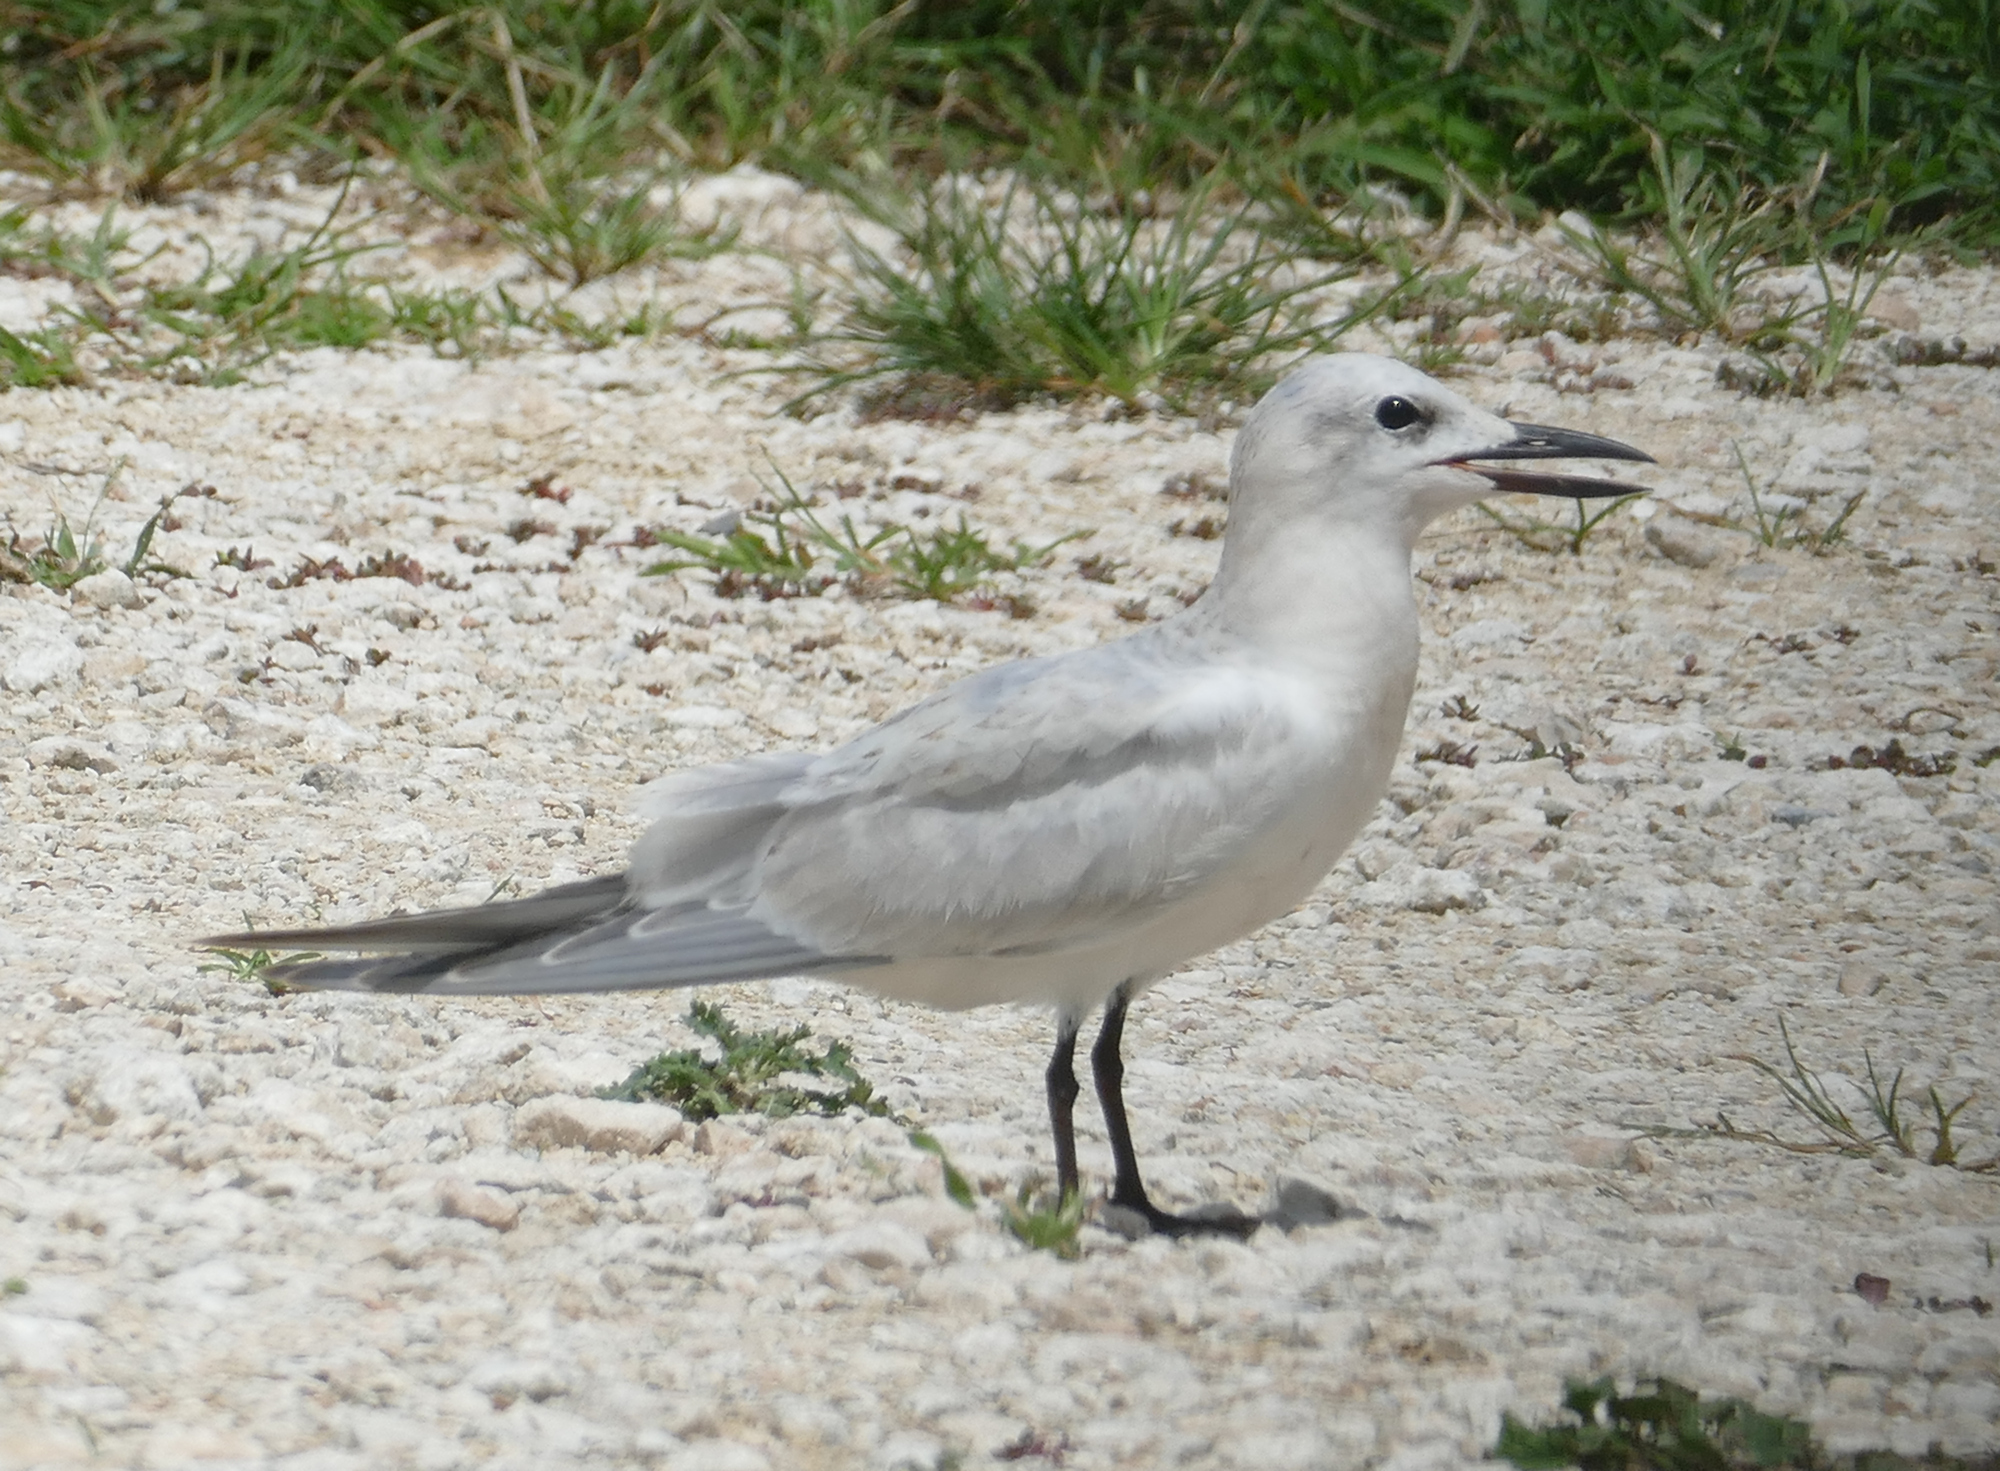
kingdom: Animalia
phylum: Chordata
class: Aves
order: Charadriiformes
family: Laridae
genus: Gelochelidon
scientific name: Gelochelidon nilotica
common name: Gull-billed tern
